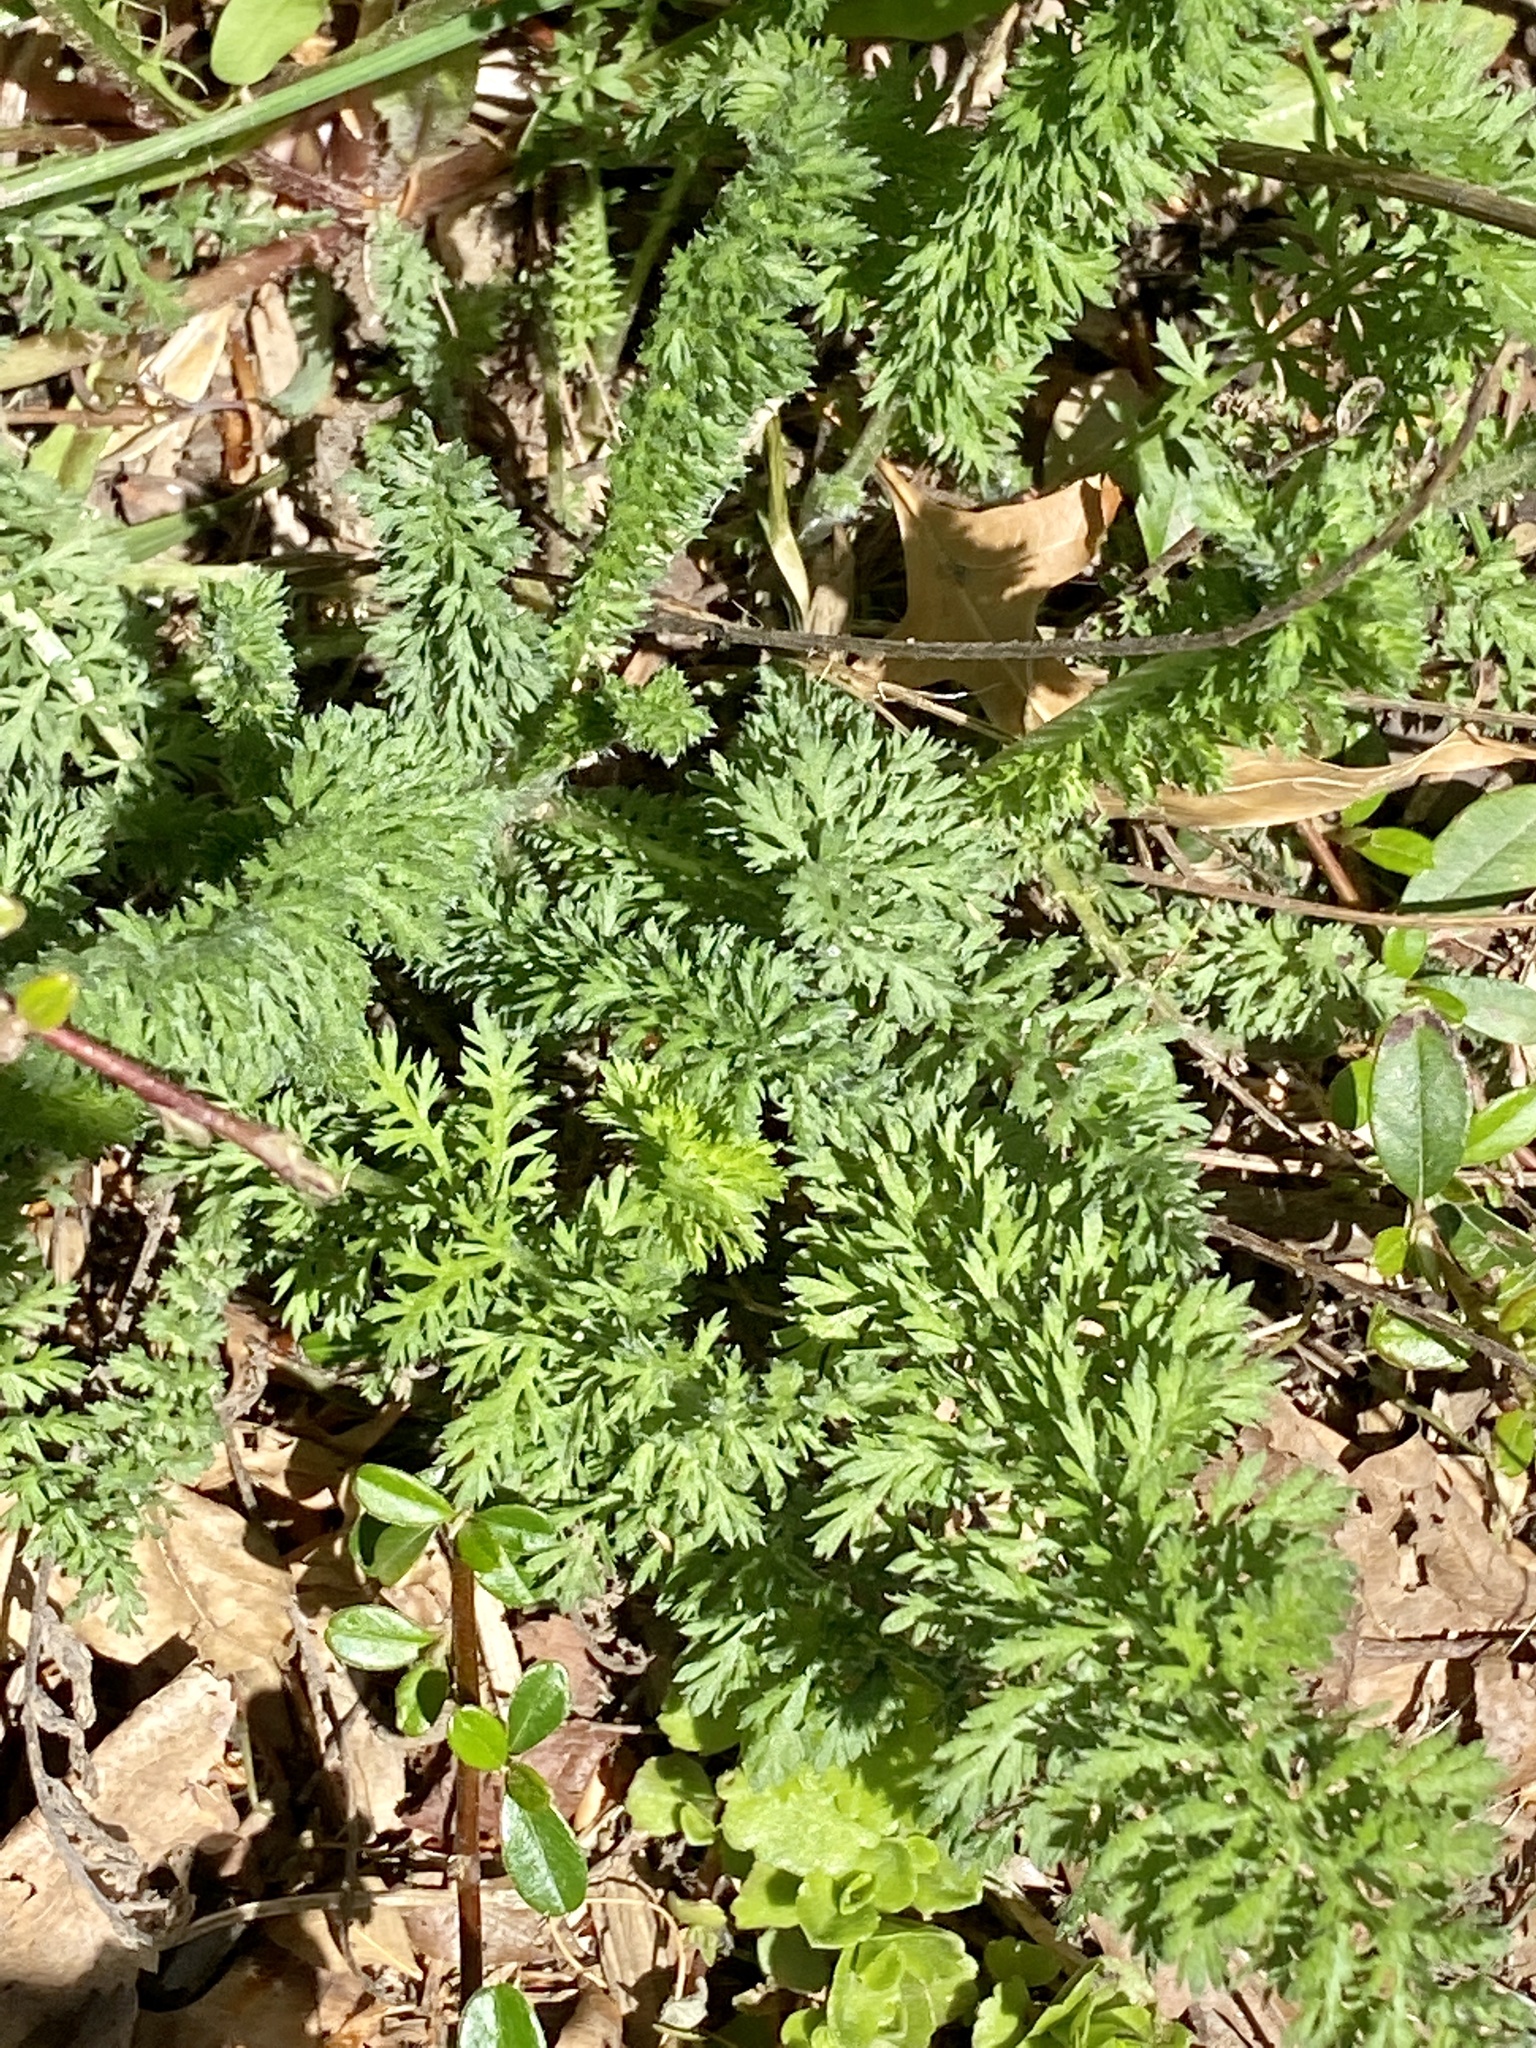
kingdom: Plantae
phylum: Tracheophyta
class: Magnoliopsida
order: Asterales
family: Asteraceae
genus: Achillea
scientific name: Achillea millefolium
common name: Yarrow
